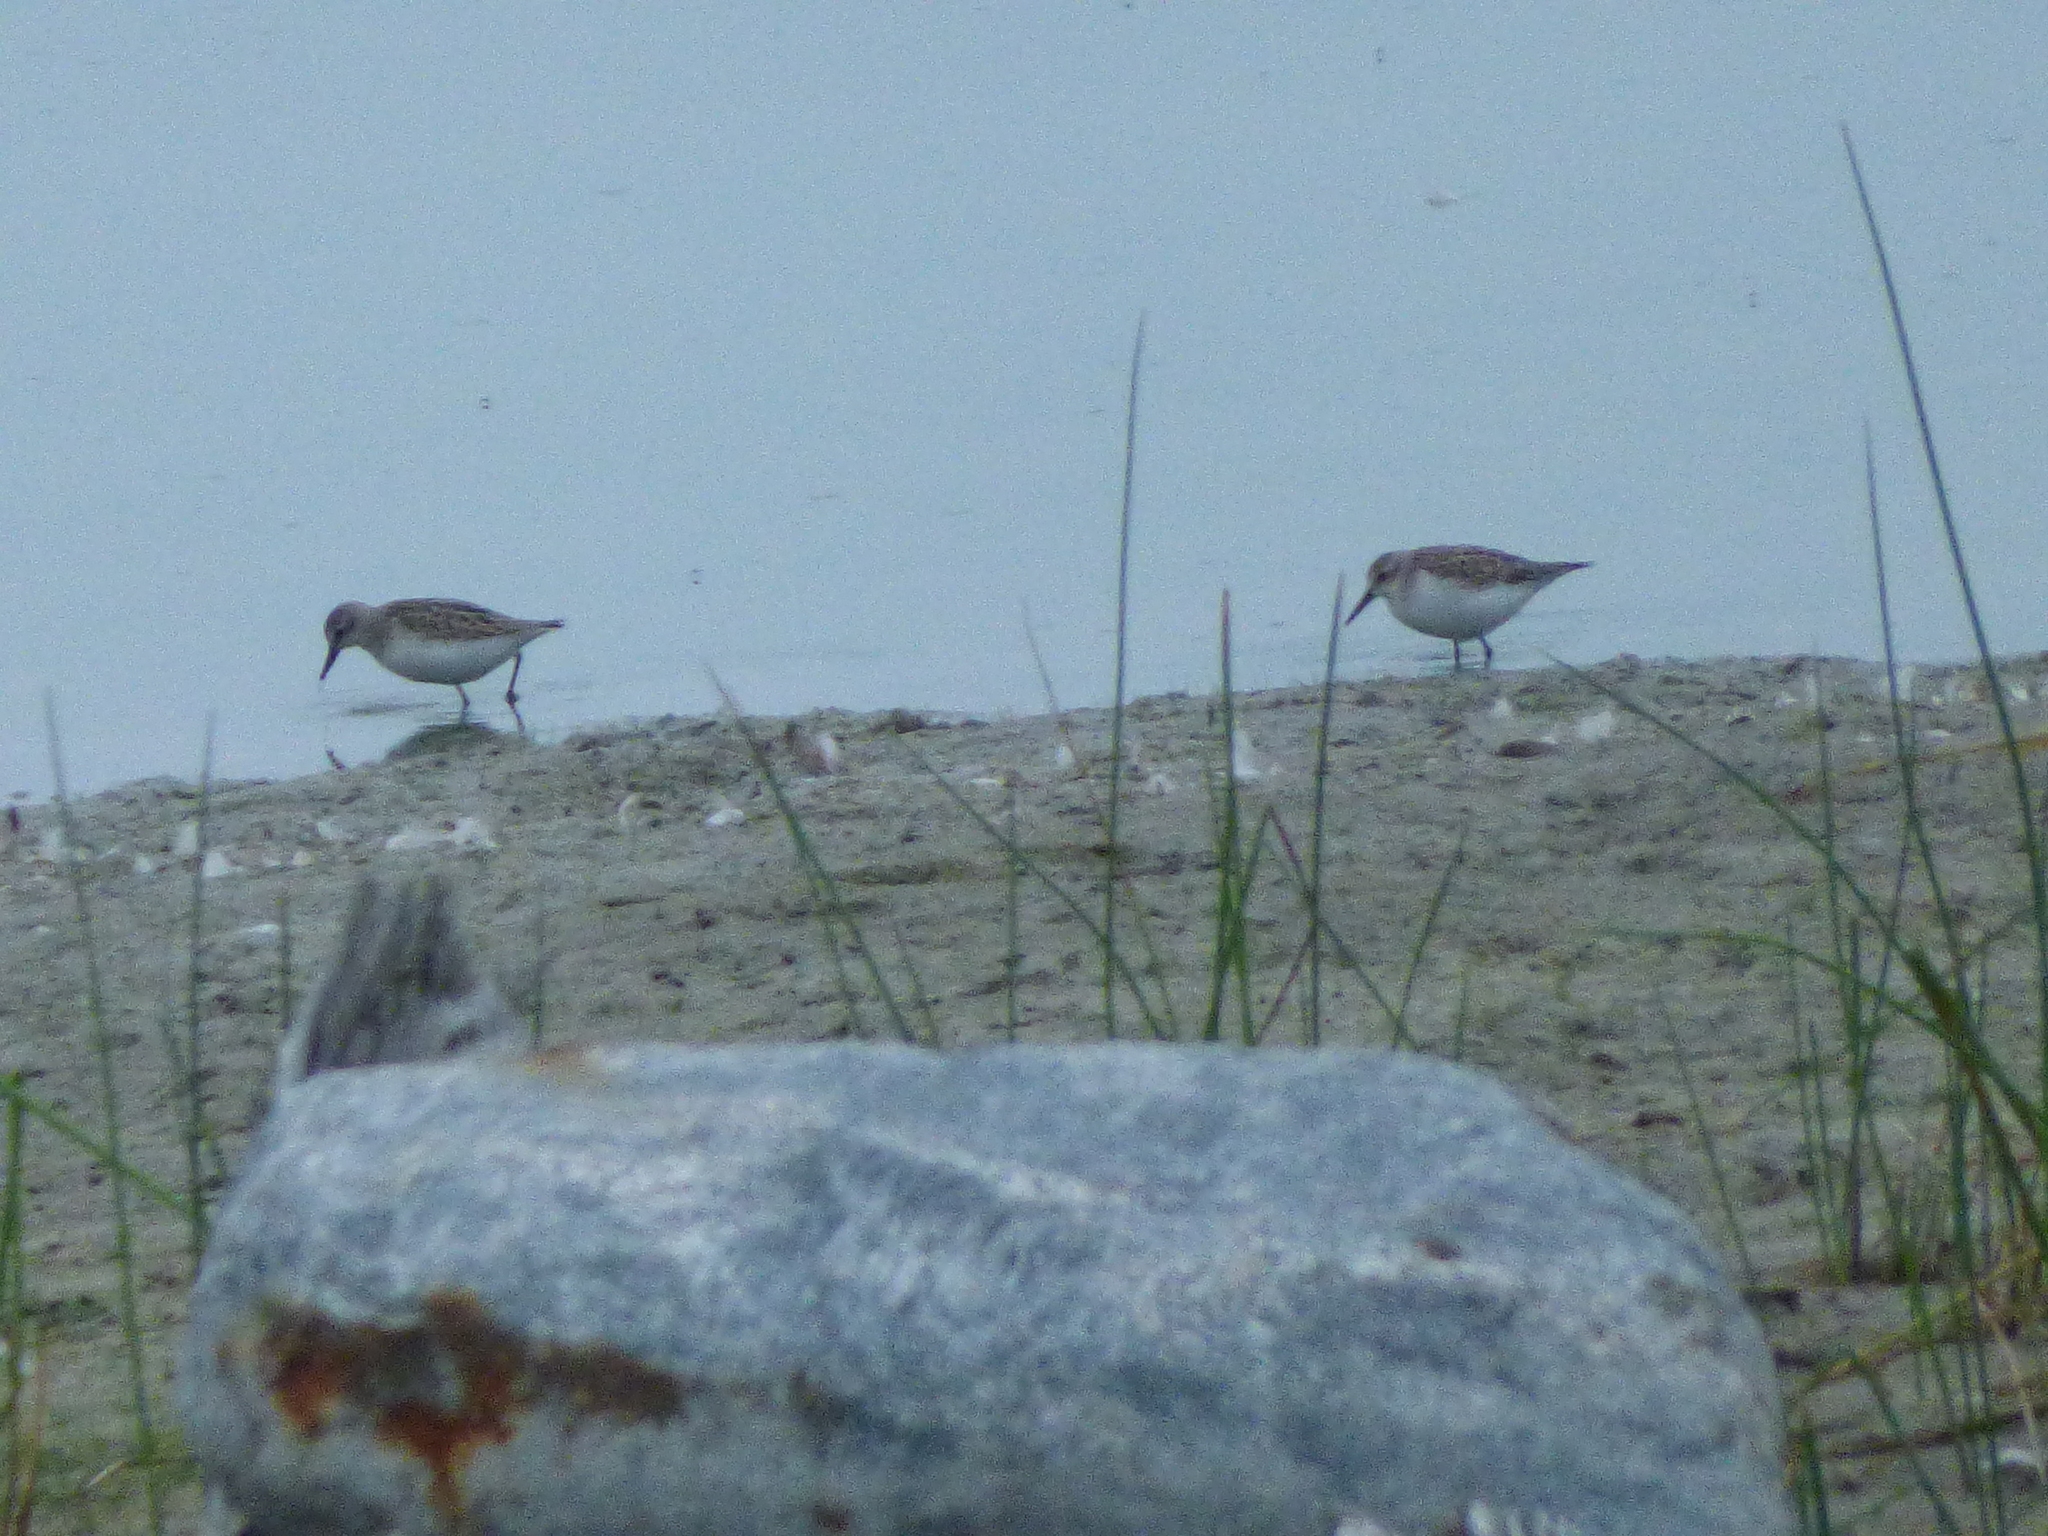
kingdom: Animalia
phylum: Chordata
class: Aves
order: Charadriiformes
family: Scolopacidae
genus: Calidris
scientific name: Calidris pusilla
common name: Semipalmated sandpiper
